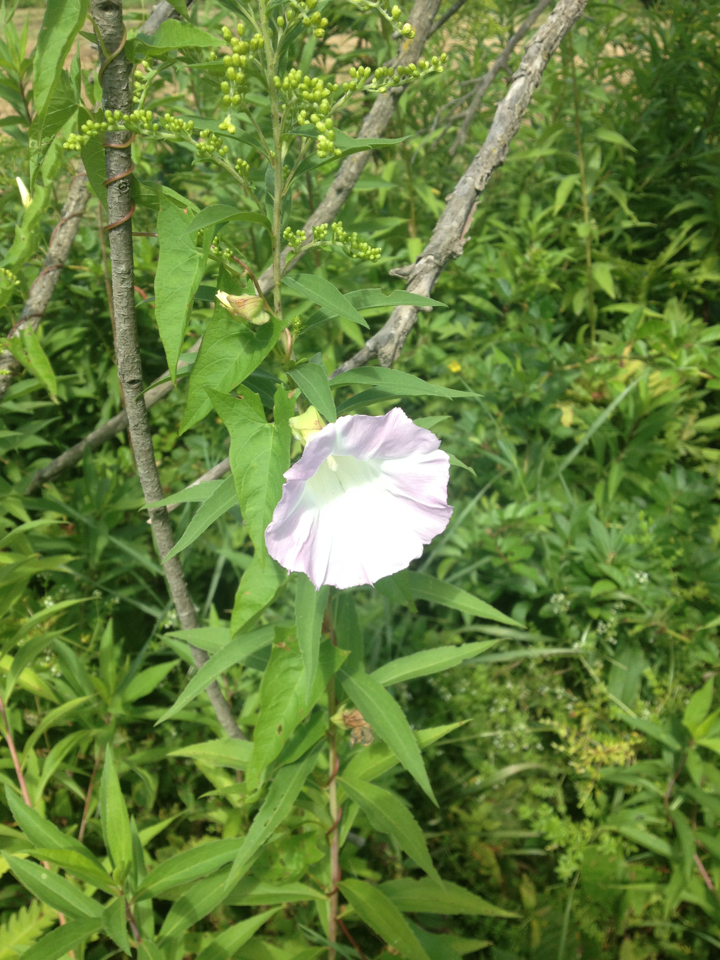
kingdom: Plantae
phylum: Tracheophyta
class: Magnoliopsida
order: Solanales
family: Convolvulaceae
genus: Calystegia
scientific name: Calystegia sepium
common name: Hedge bindweed
